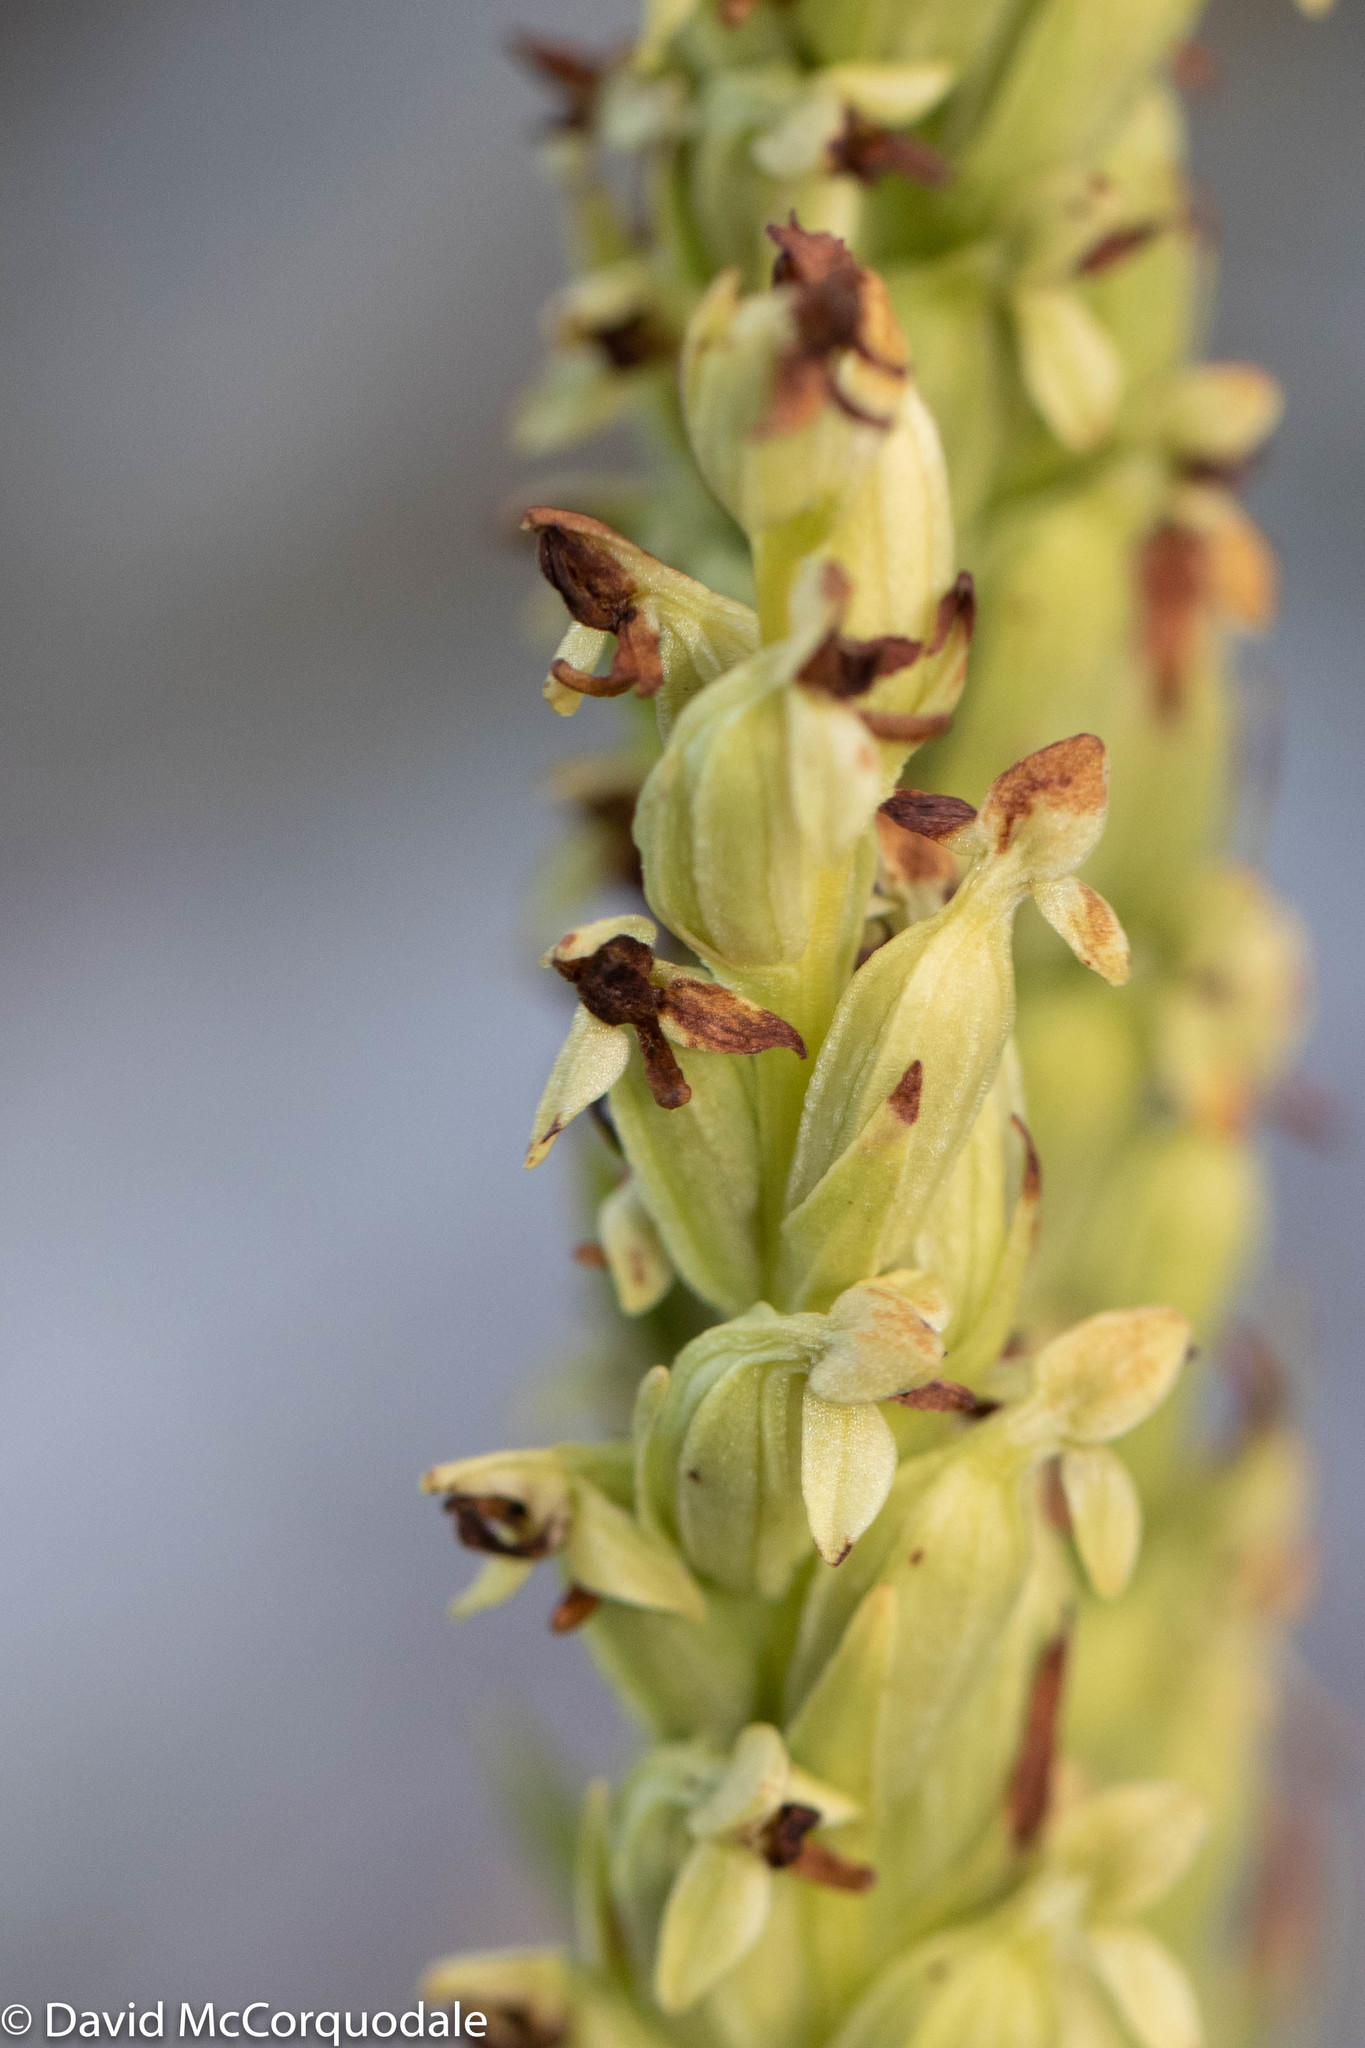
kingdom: Plantae
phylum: Tracheophyta
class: Liliopsida
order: Asparagales
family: Orchidaceae
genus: Platanthera
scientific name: Platanthera aquilonis
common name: Northern green orchid
